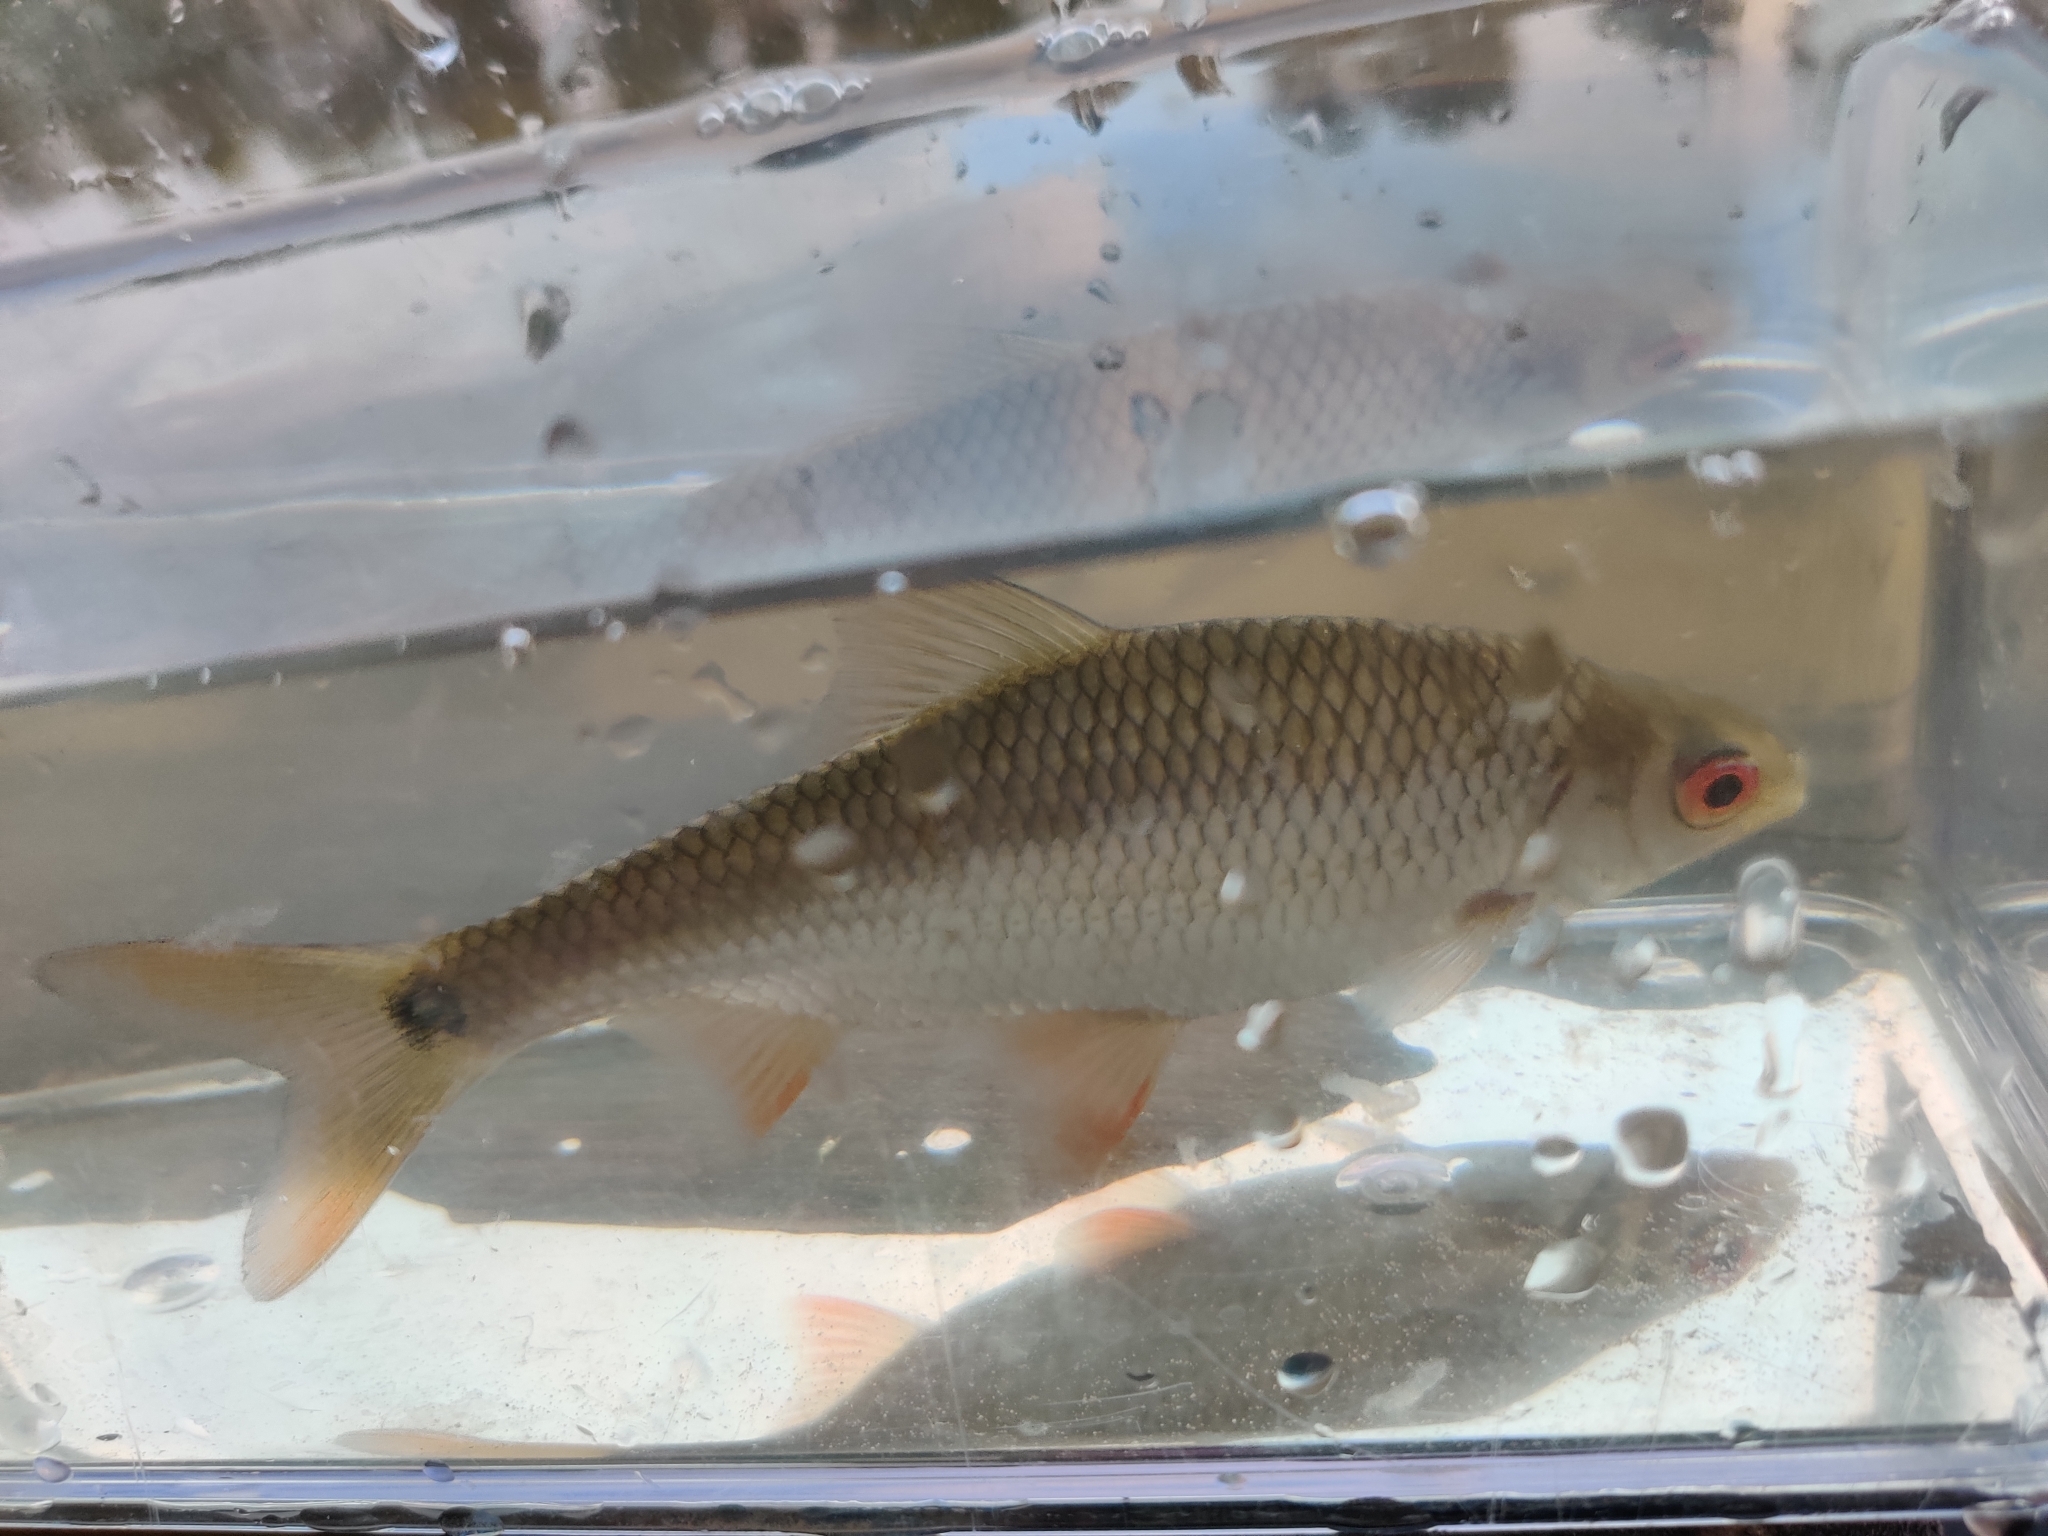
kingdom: Animalia
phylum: Chordata
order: Cypriniformes
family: Cyprinidae
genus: Rutilus
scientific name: Rutilus rutilus
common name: Roach
